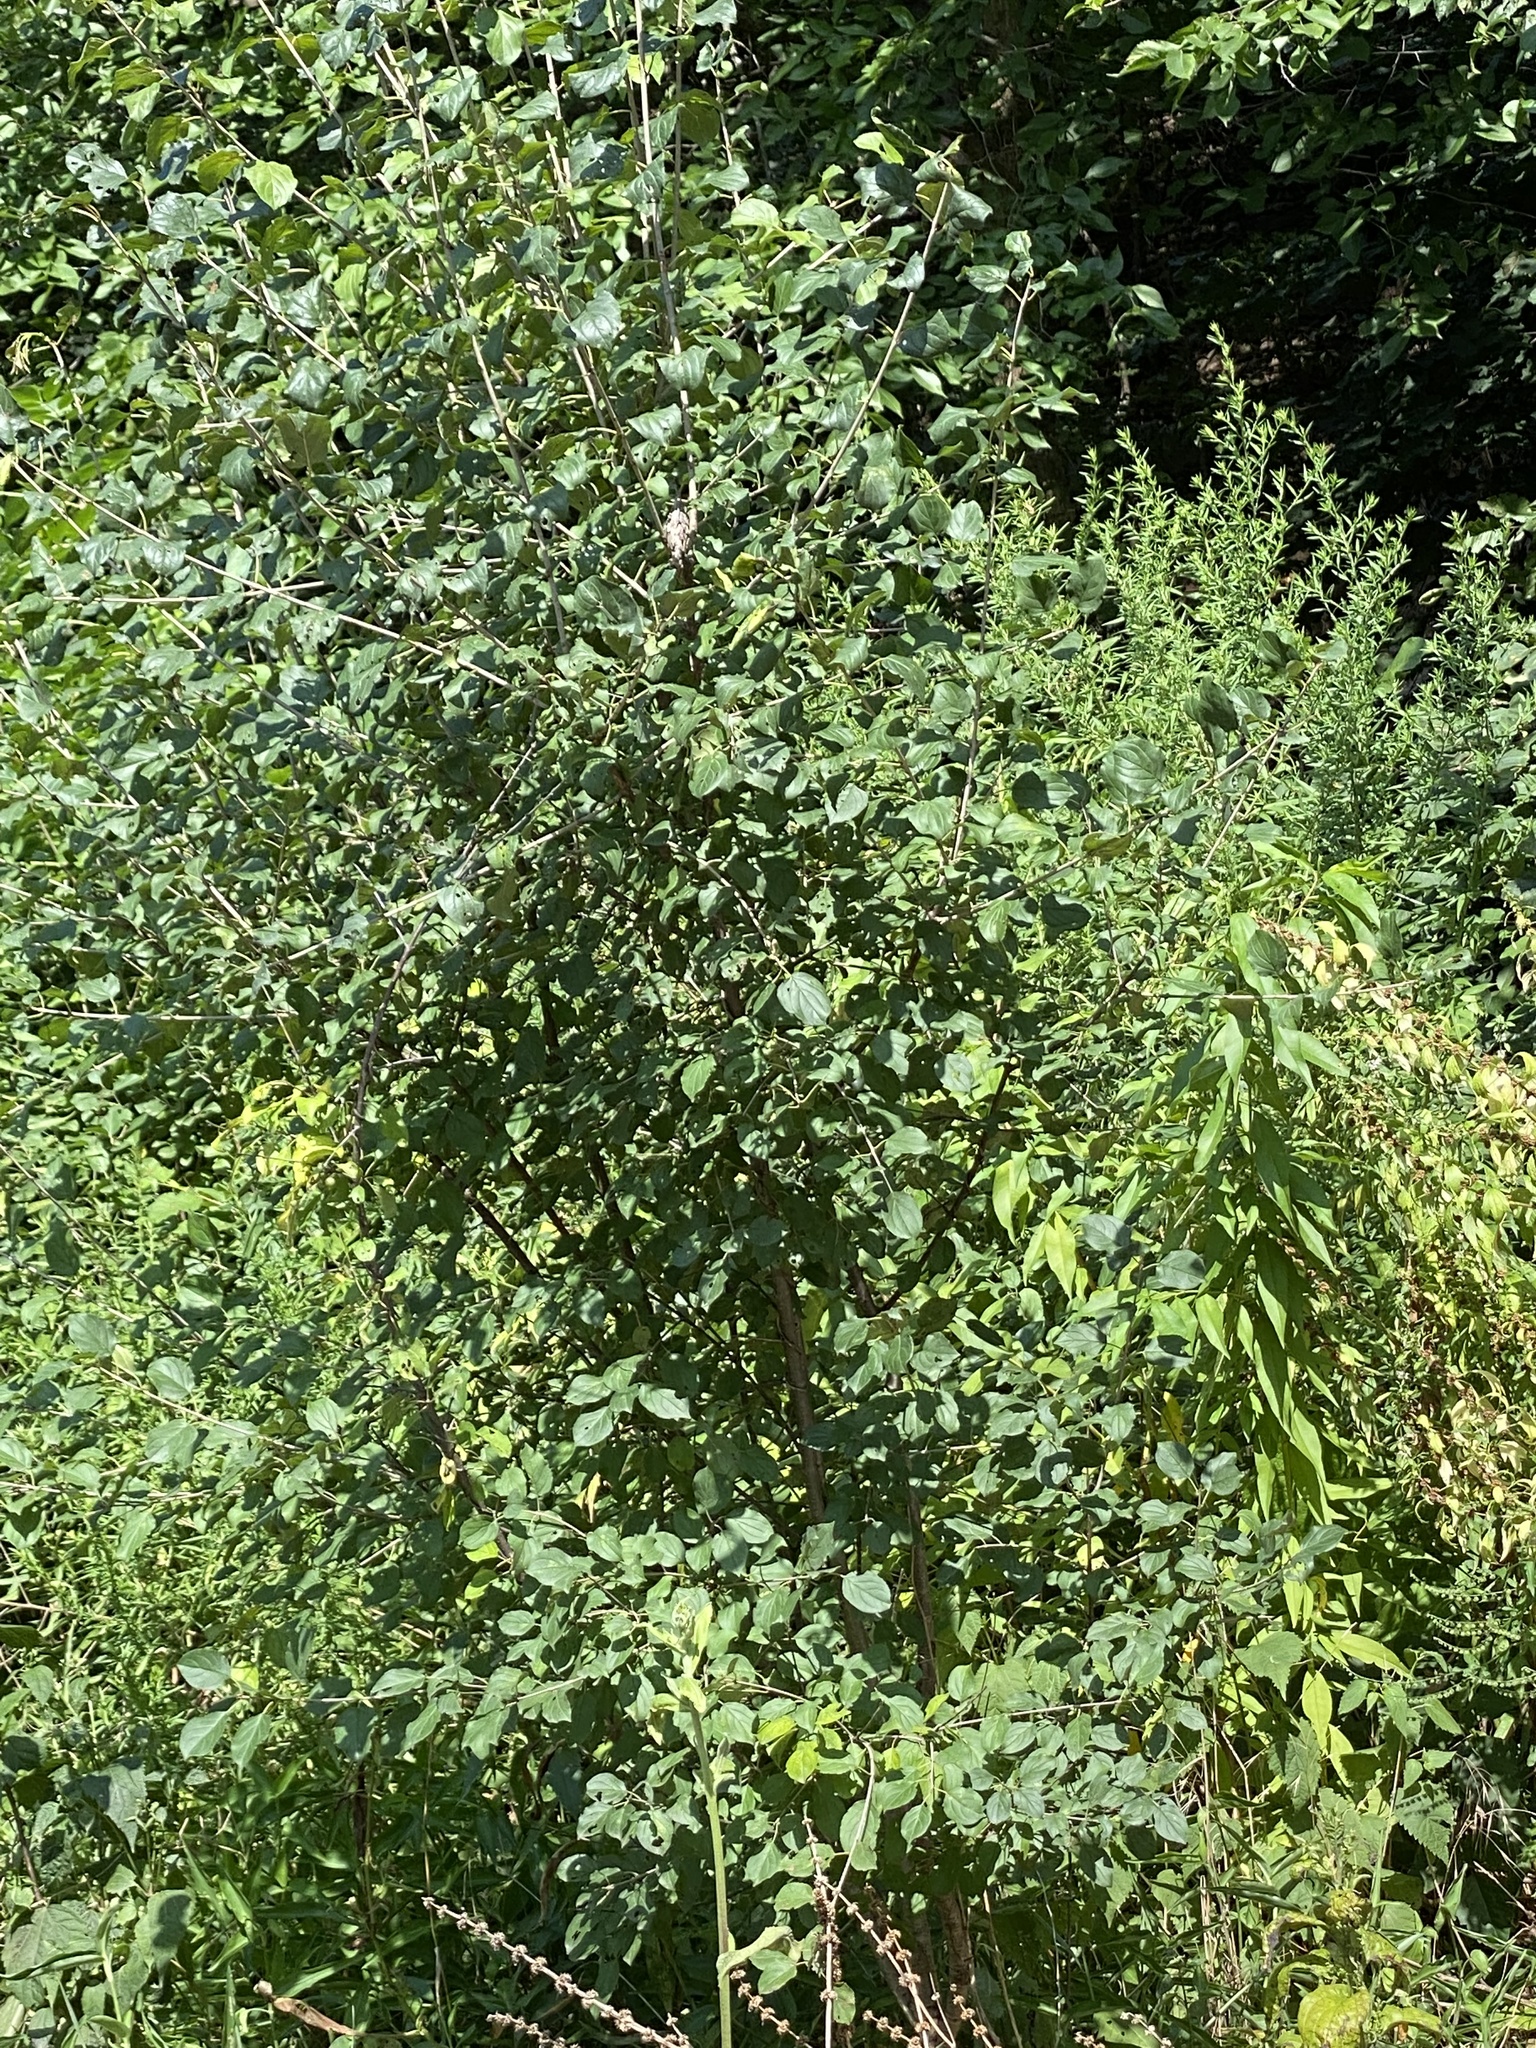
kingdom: Plantae
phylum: Tracheophyta
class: Magnoliopsida
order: Rosales
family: Rhamnaceae
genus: Rhamnus
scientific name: Rhamnus cathartica
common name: Common buckthorn
